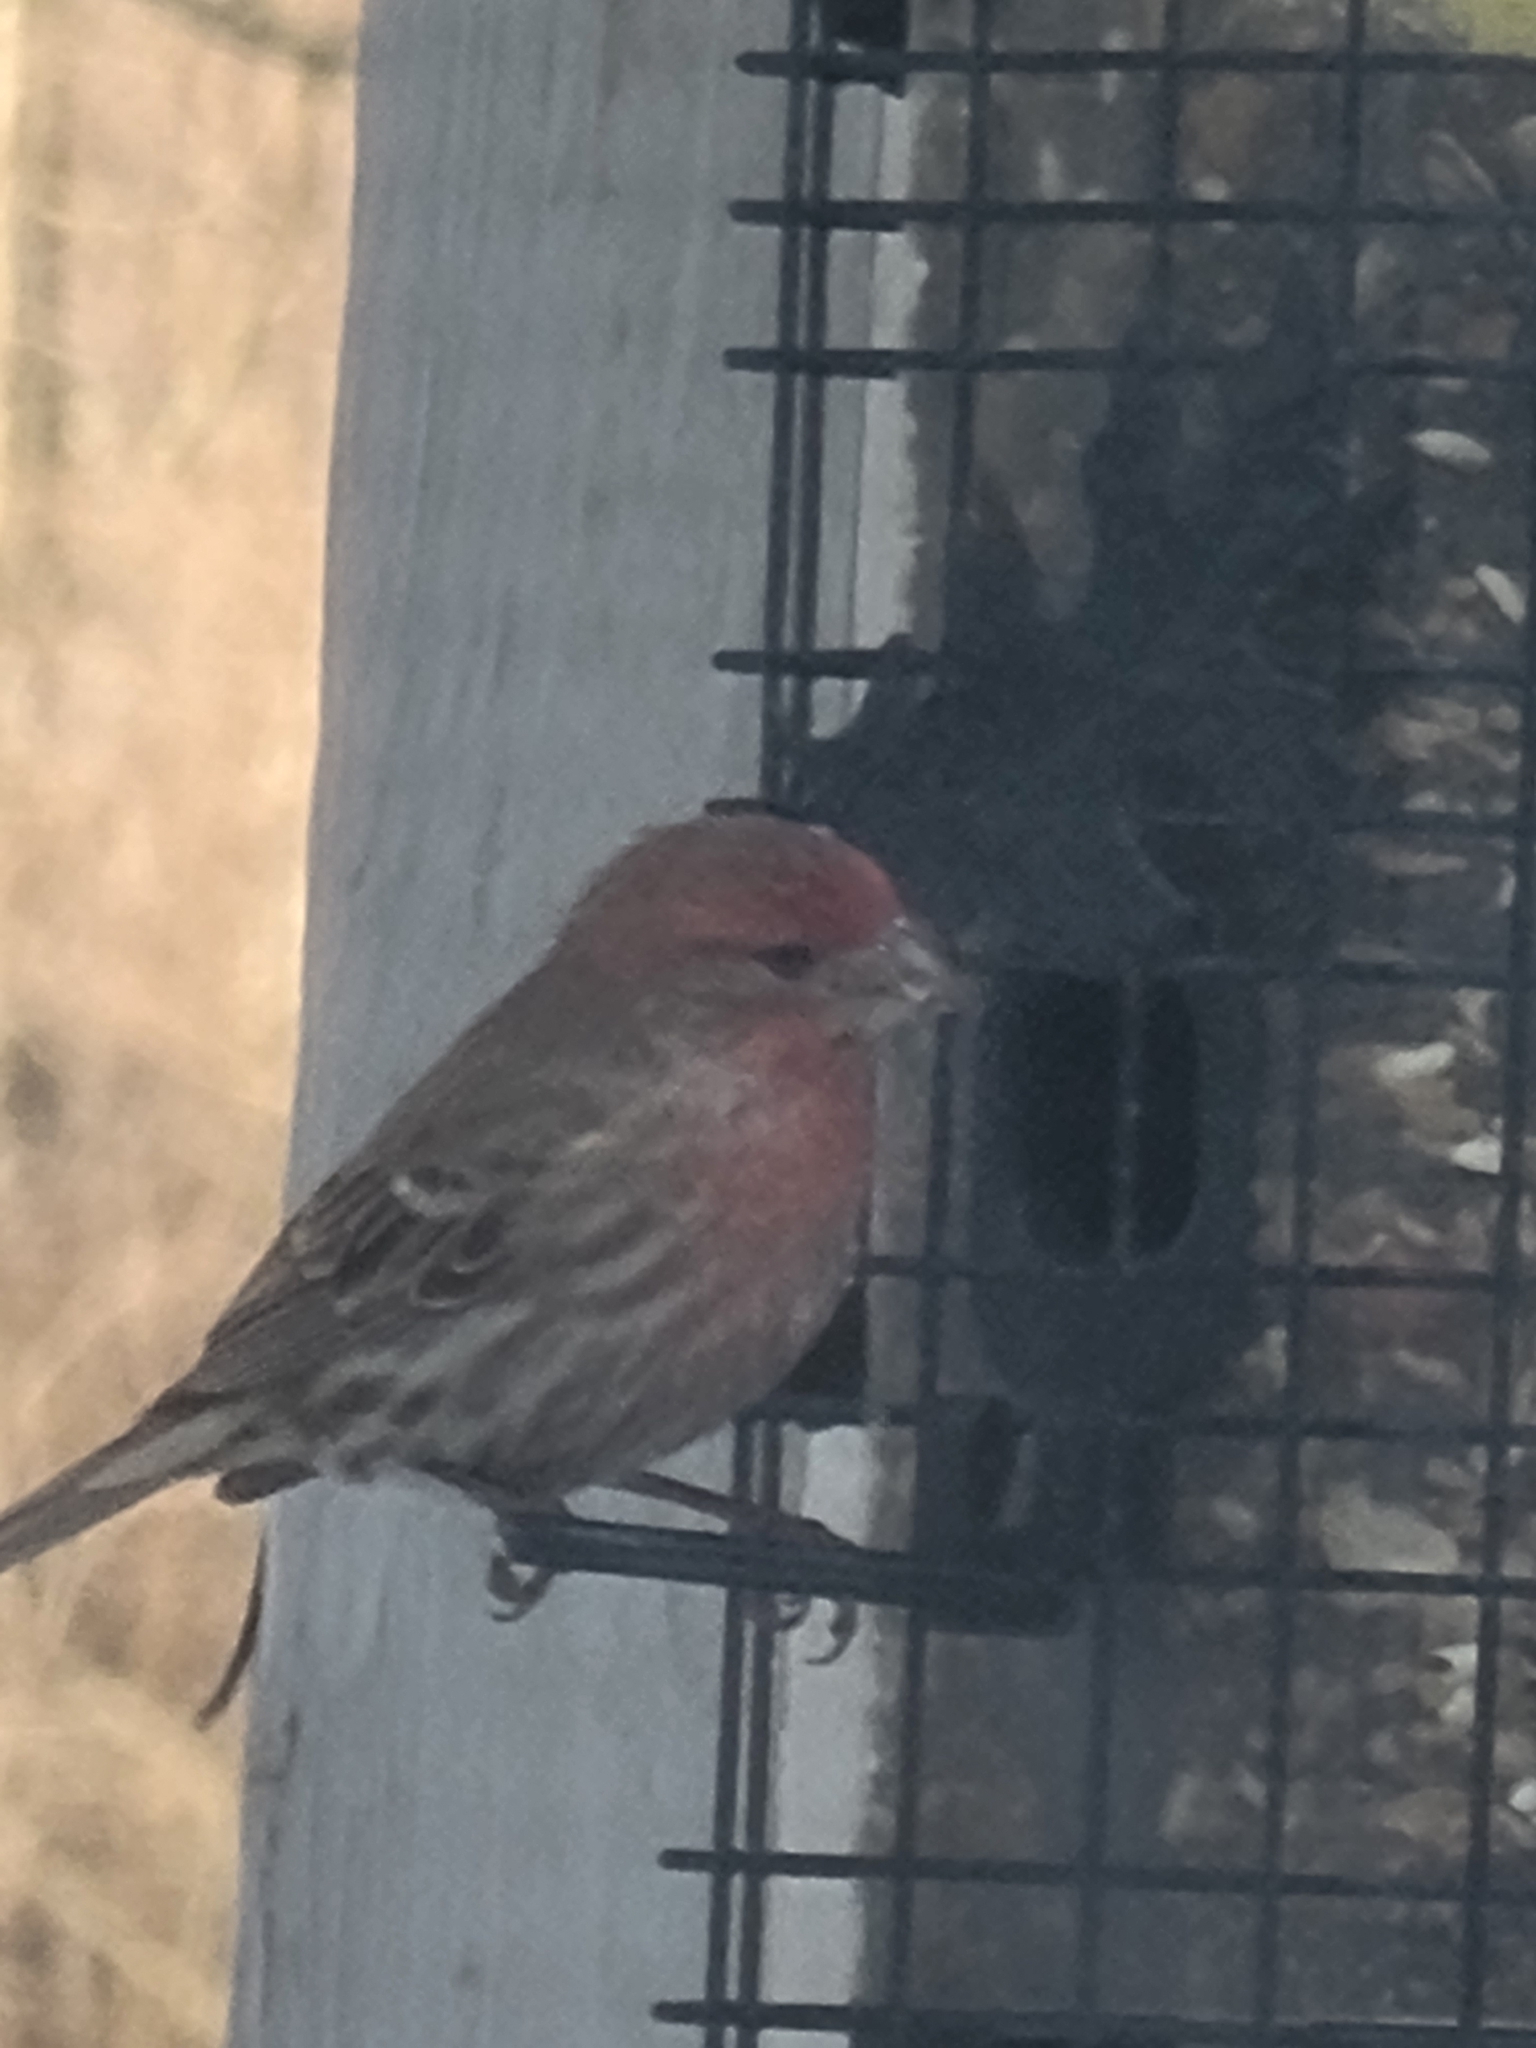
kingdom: Animalia
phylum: Chordata
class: Aves
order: Passeriformes
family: Fringillidae
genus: Haemorhous
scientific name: Haemorhous mexicanus
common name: House finch
